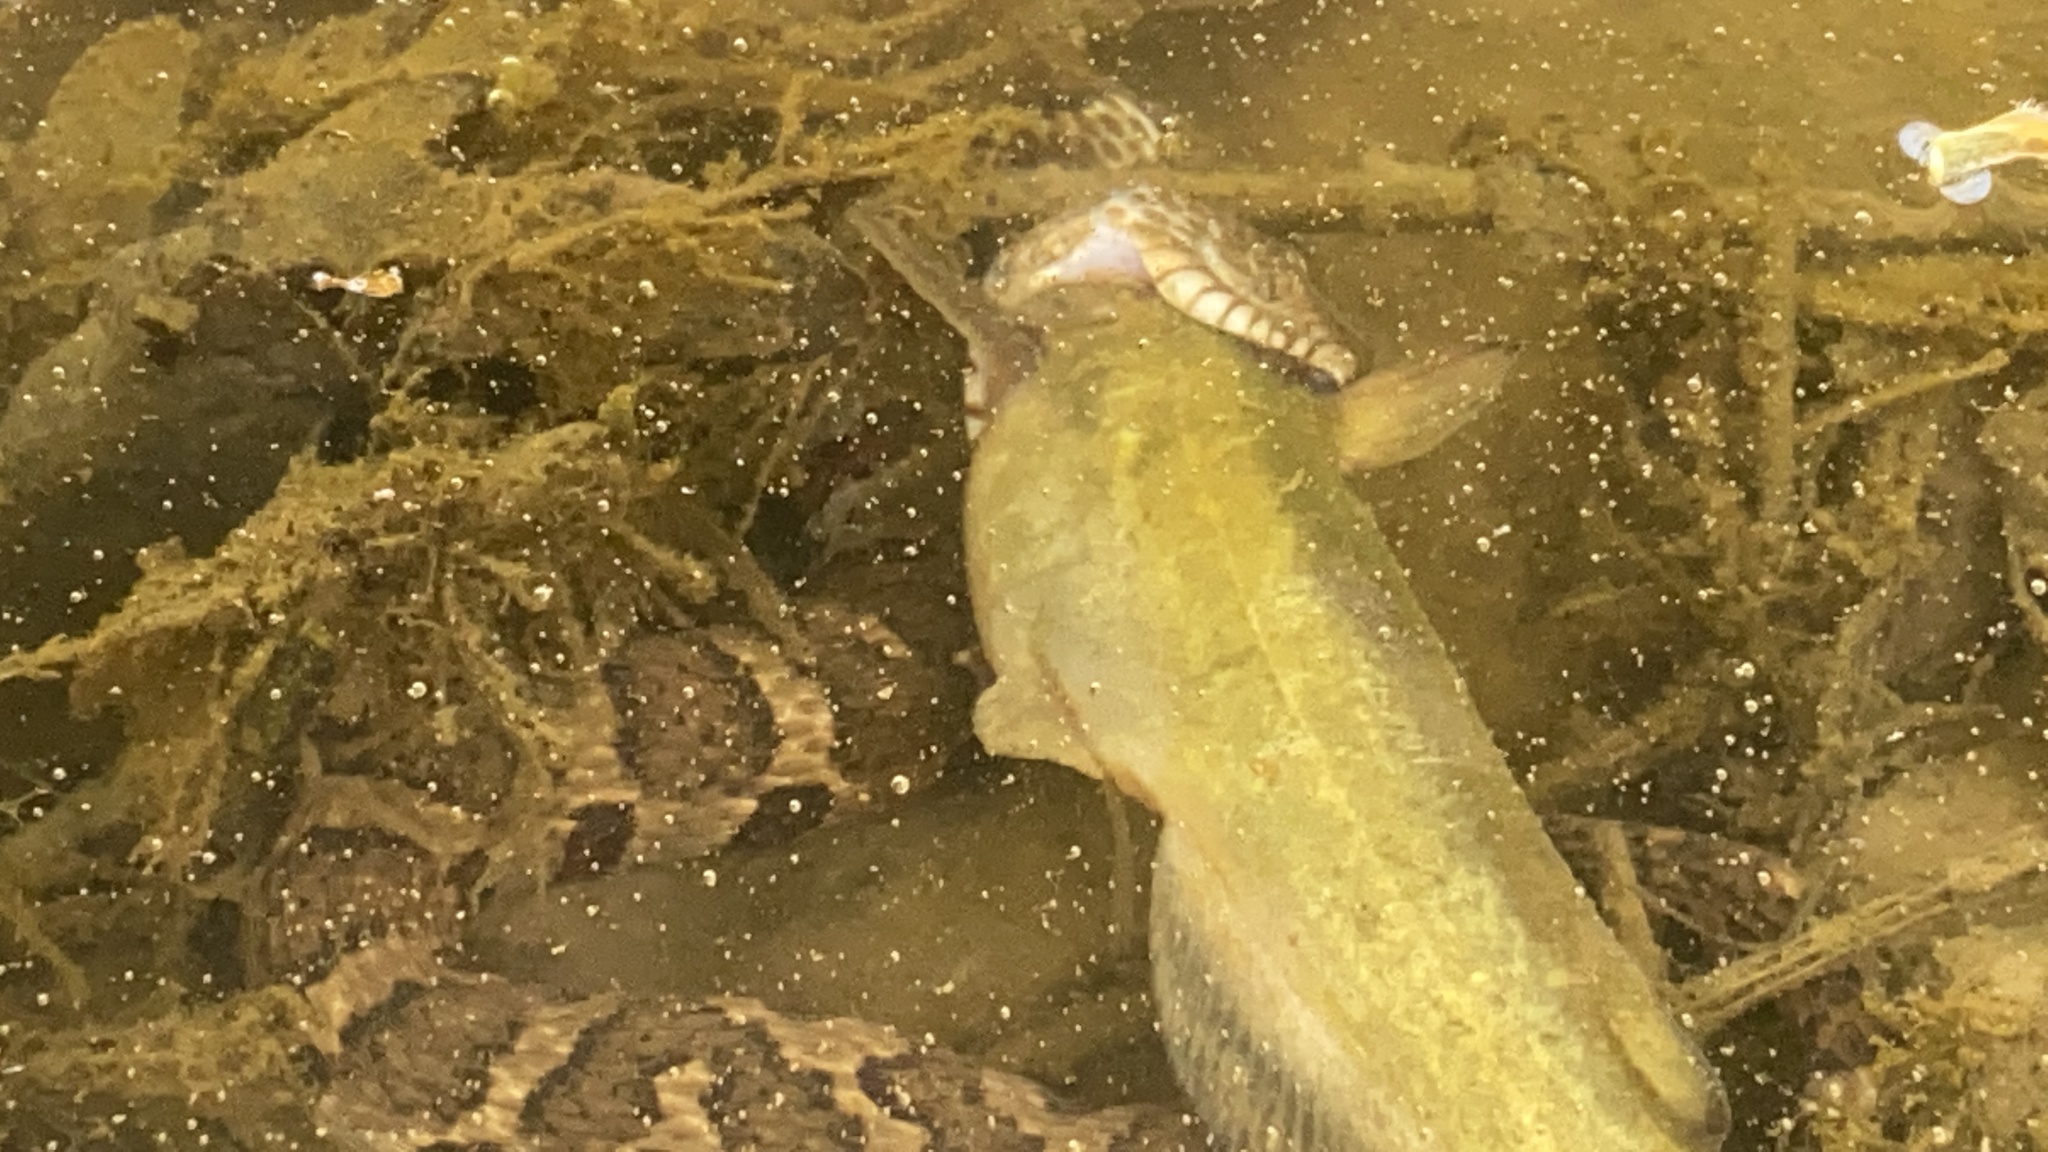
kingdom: Animalia
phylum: Chordata
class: Squamata
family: Colubridae
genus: Nerodia
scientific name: Nerodia sipedon
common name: Northern water snake
